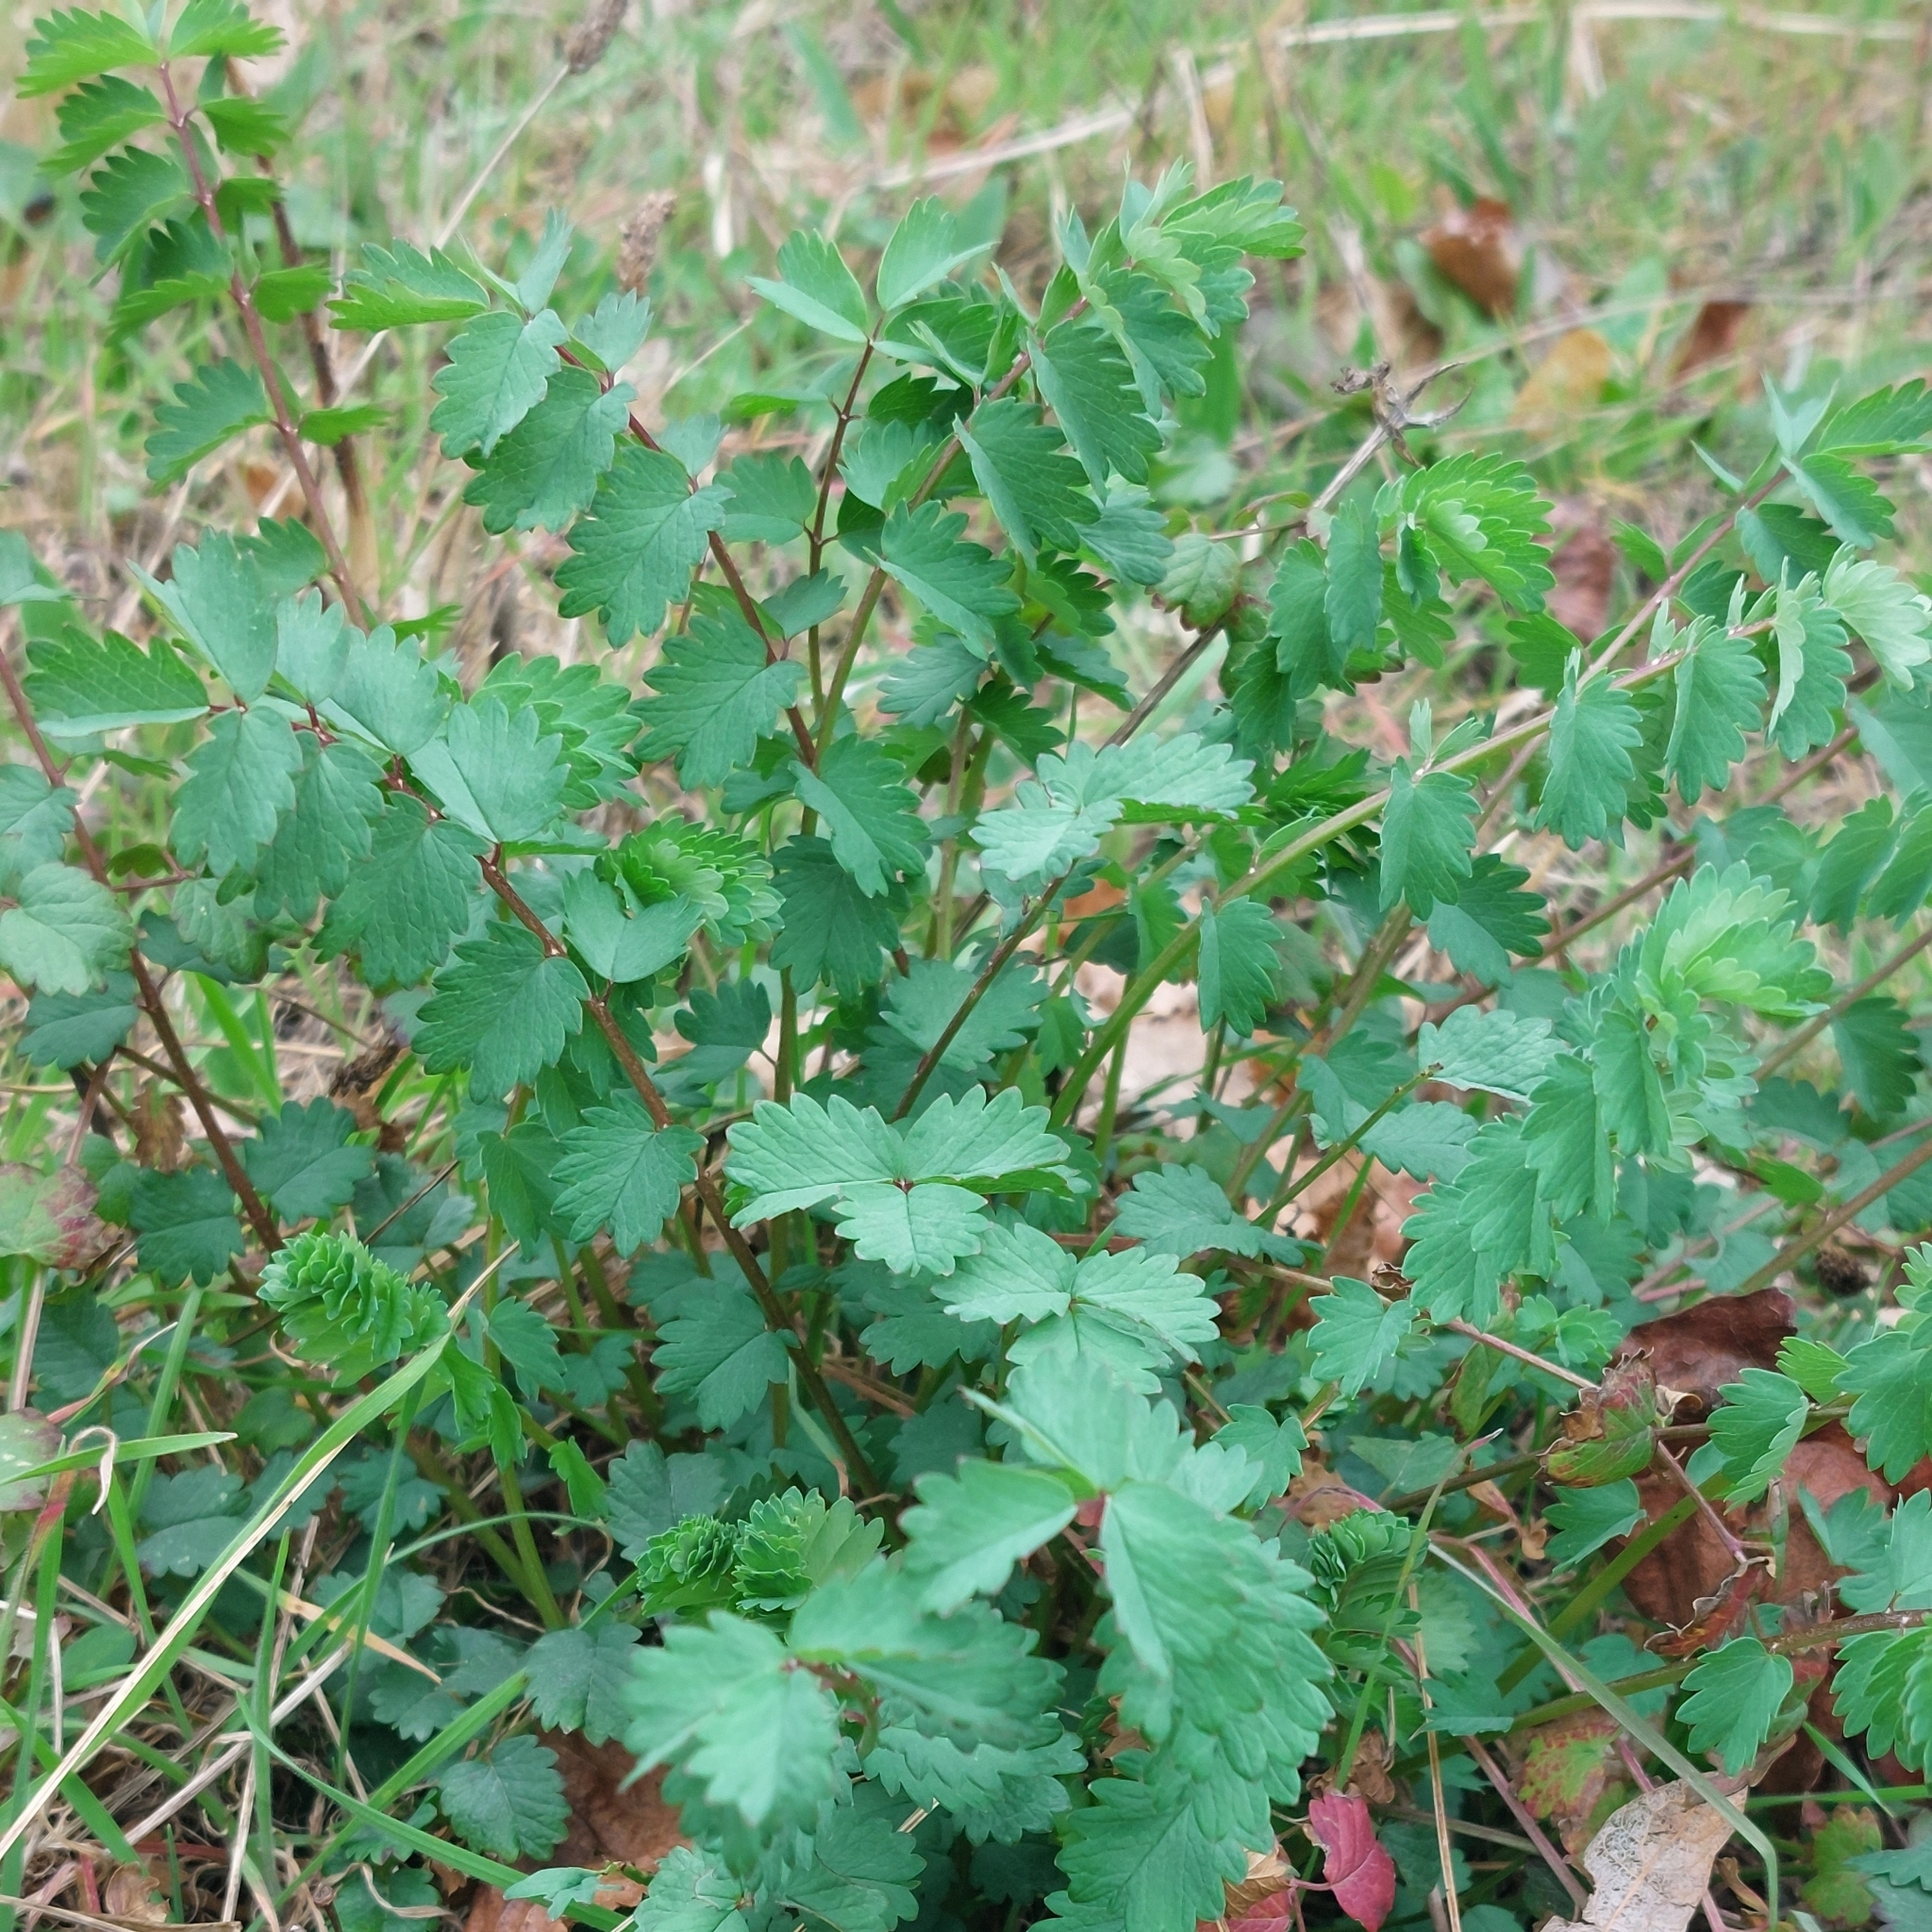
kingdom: Plantae
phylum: Tracheophyta
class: Magnoliopsida
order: Rosales
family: Rosaceae
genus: Poterium
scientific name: Poterium sanguisorba
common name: Salad burnet
